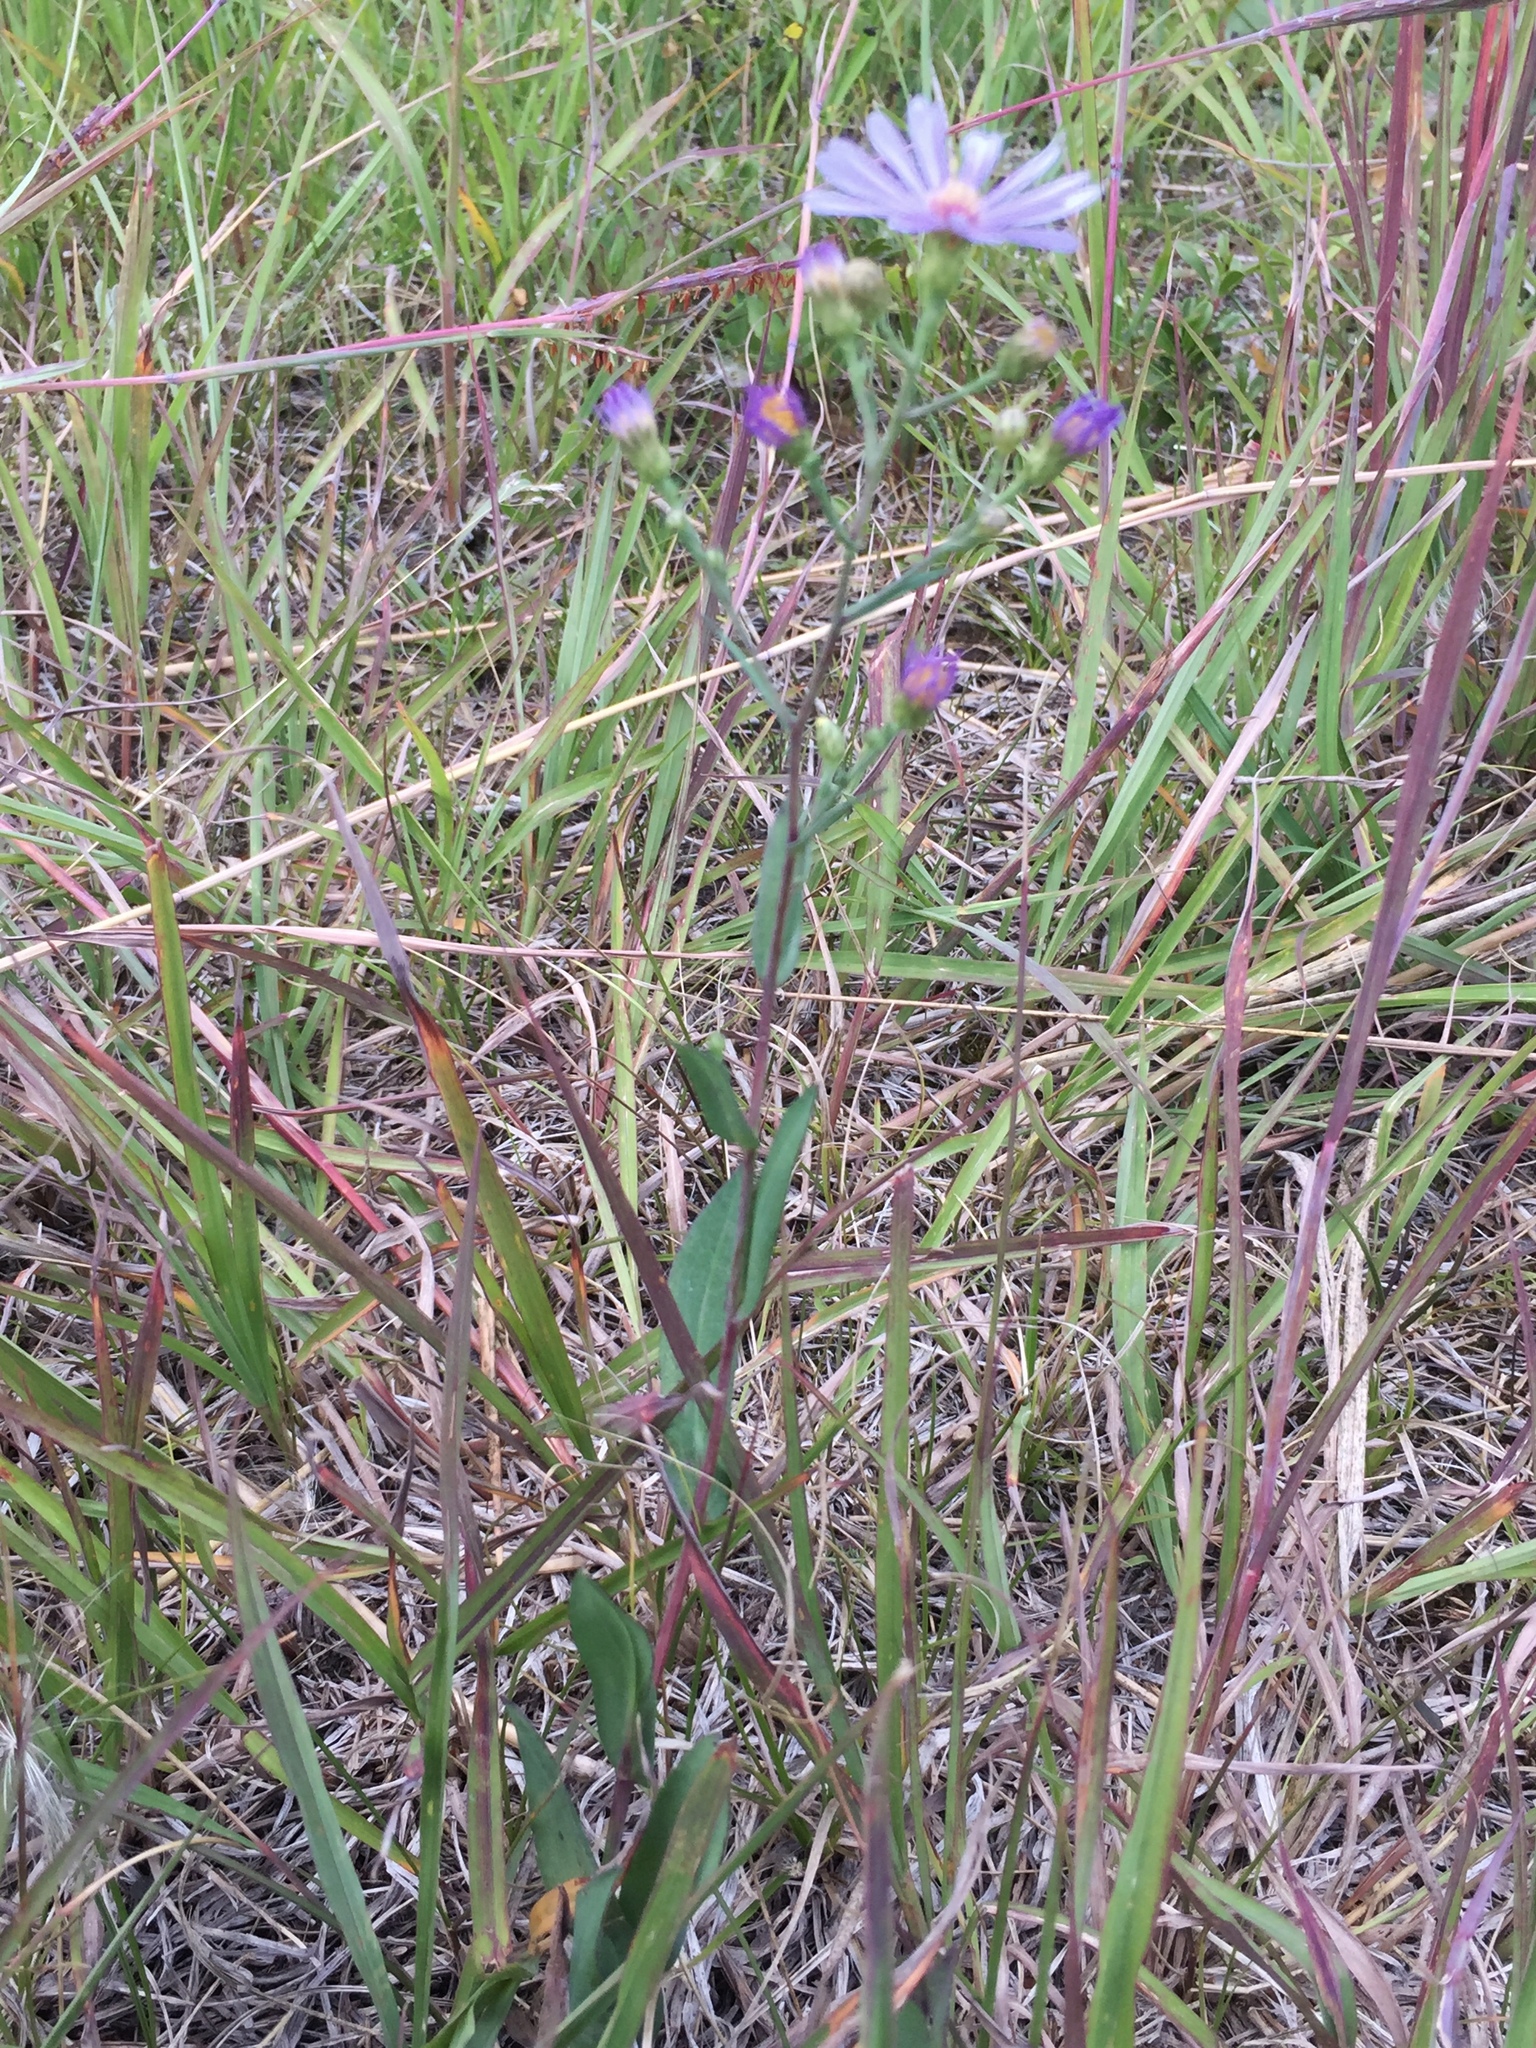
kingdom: Plantae
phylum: Tracheophyta
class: Magnoliopsida
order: Asterales
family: Asteraceae
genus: Symphyotrichum
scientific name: Symphyotrichum laeve
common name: Glaucous aster
